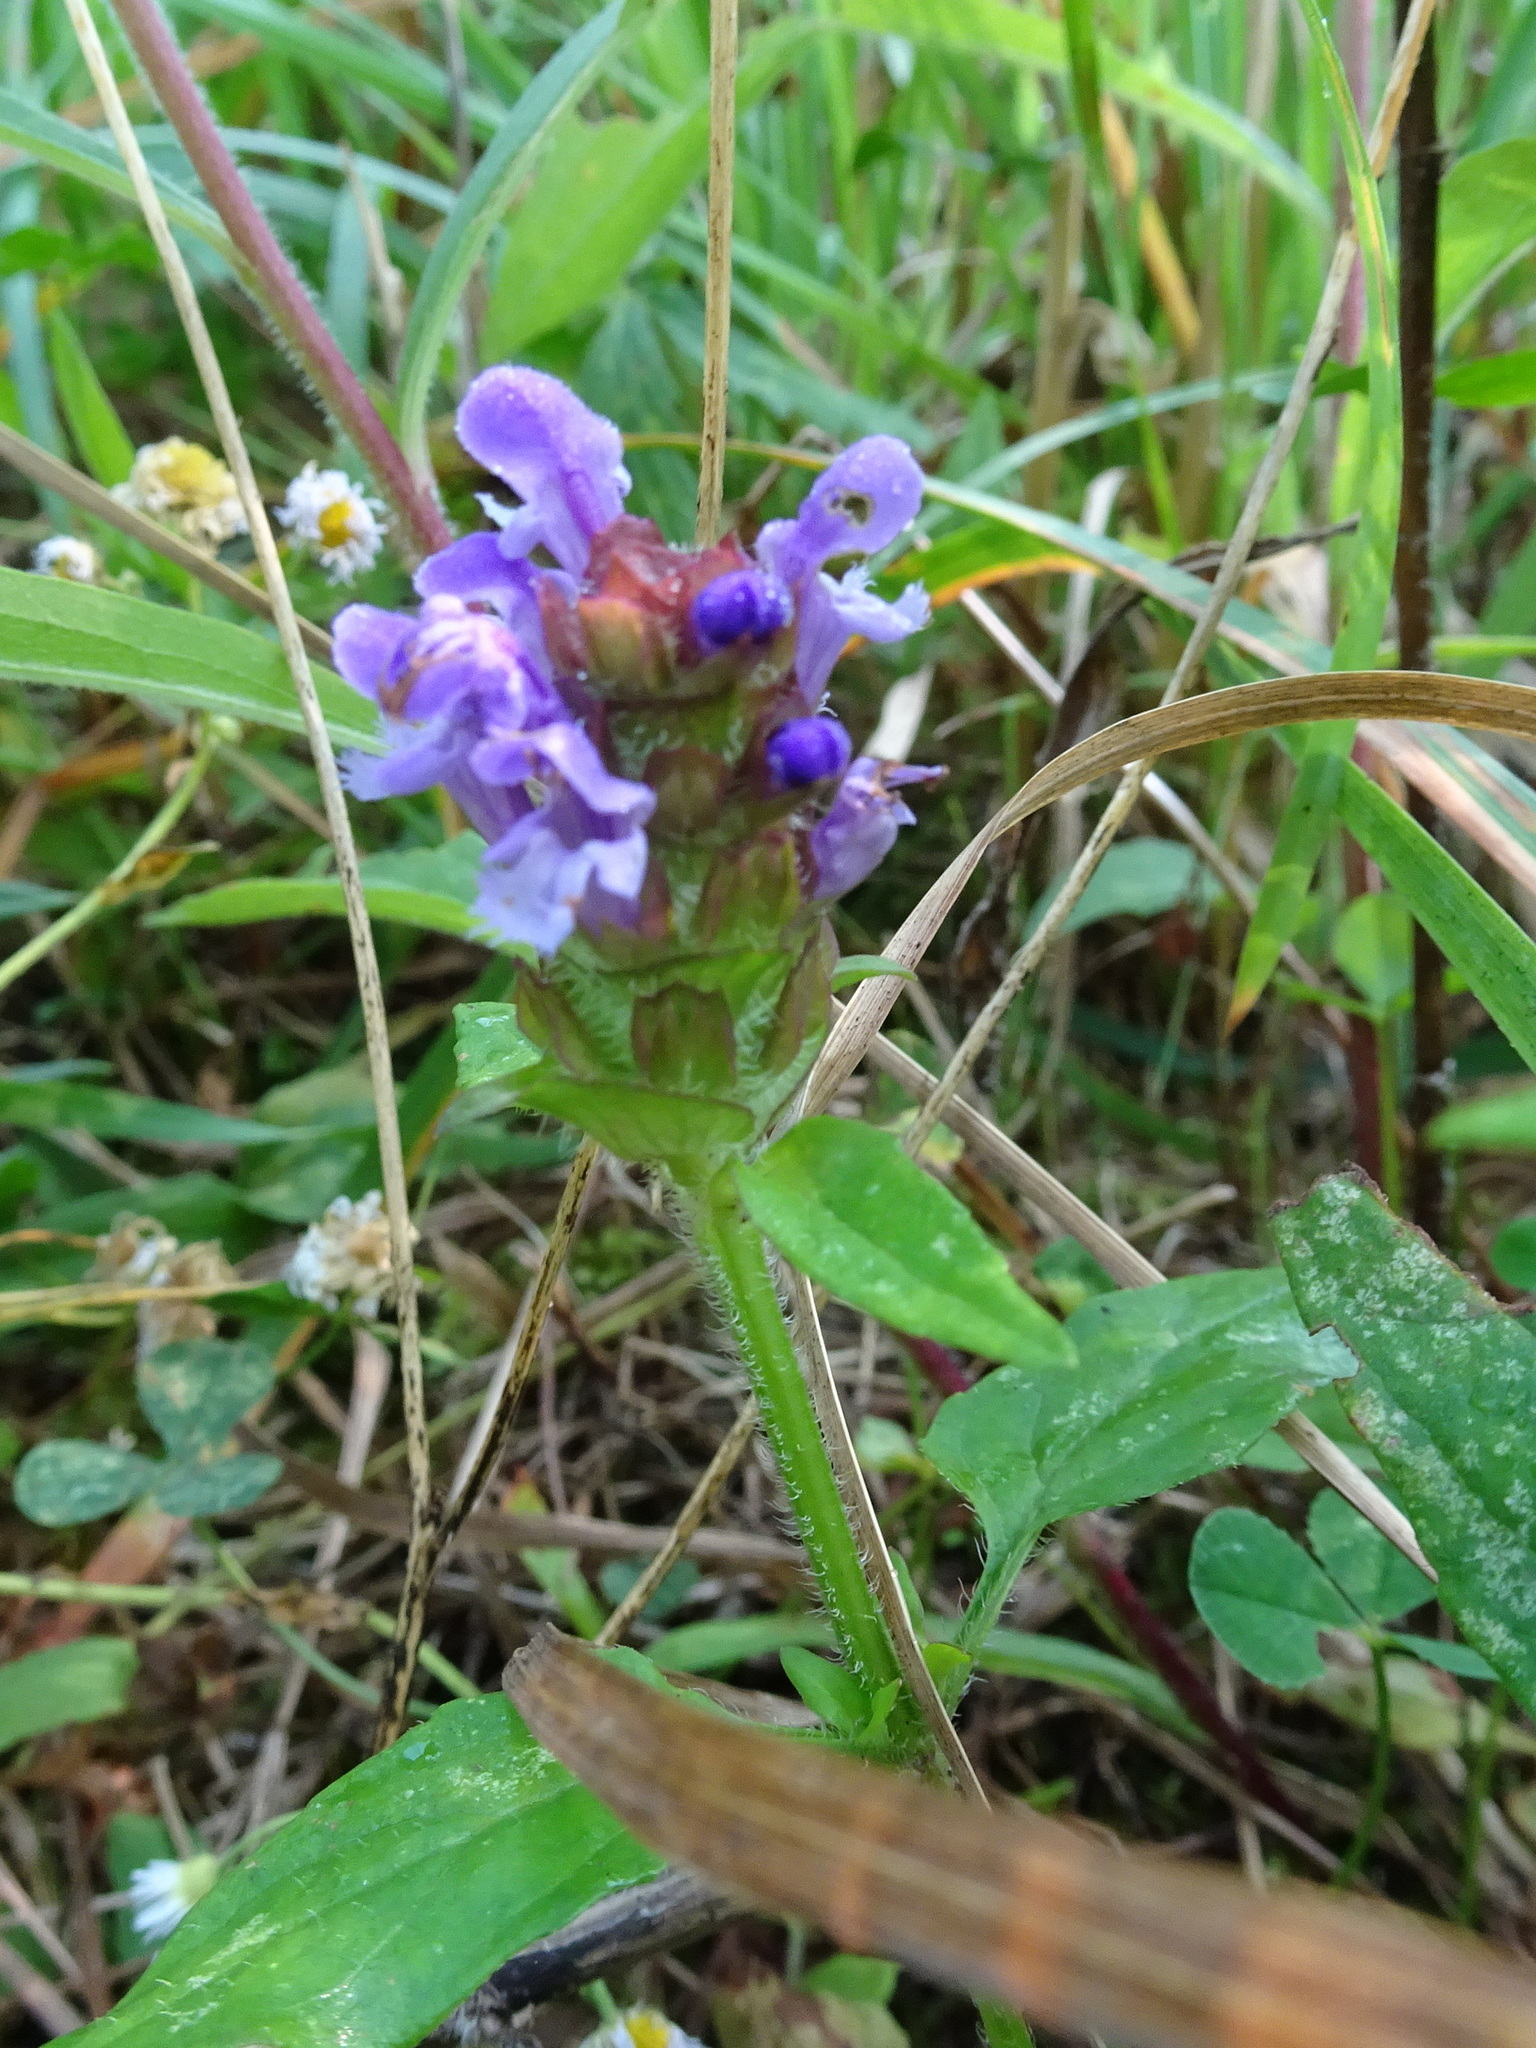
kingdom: Plantae
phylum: Tracheophyta
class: Magnoliopsida
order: Lamiales
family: Lamiaceae
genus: Prunella
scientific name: Prunella vulgaris
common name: Heal-all
